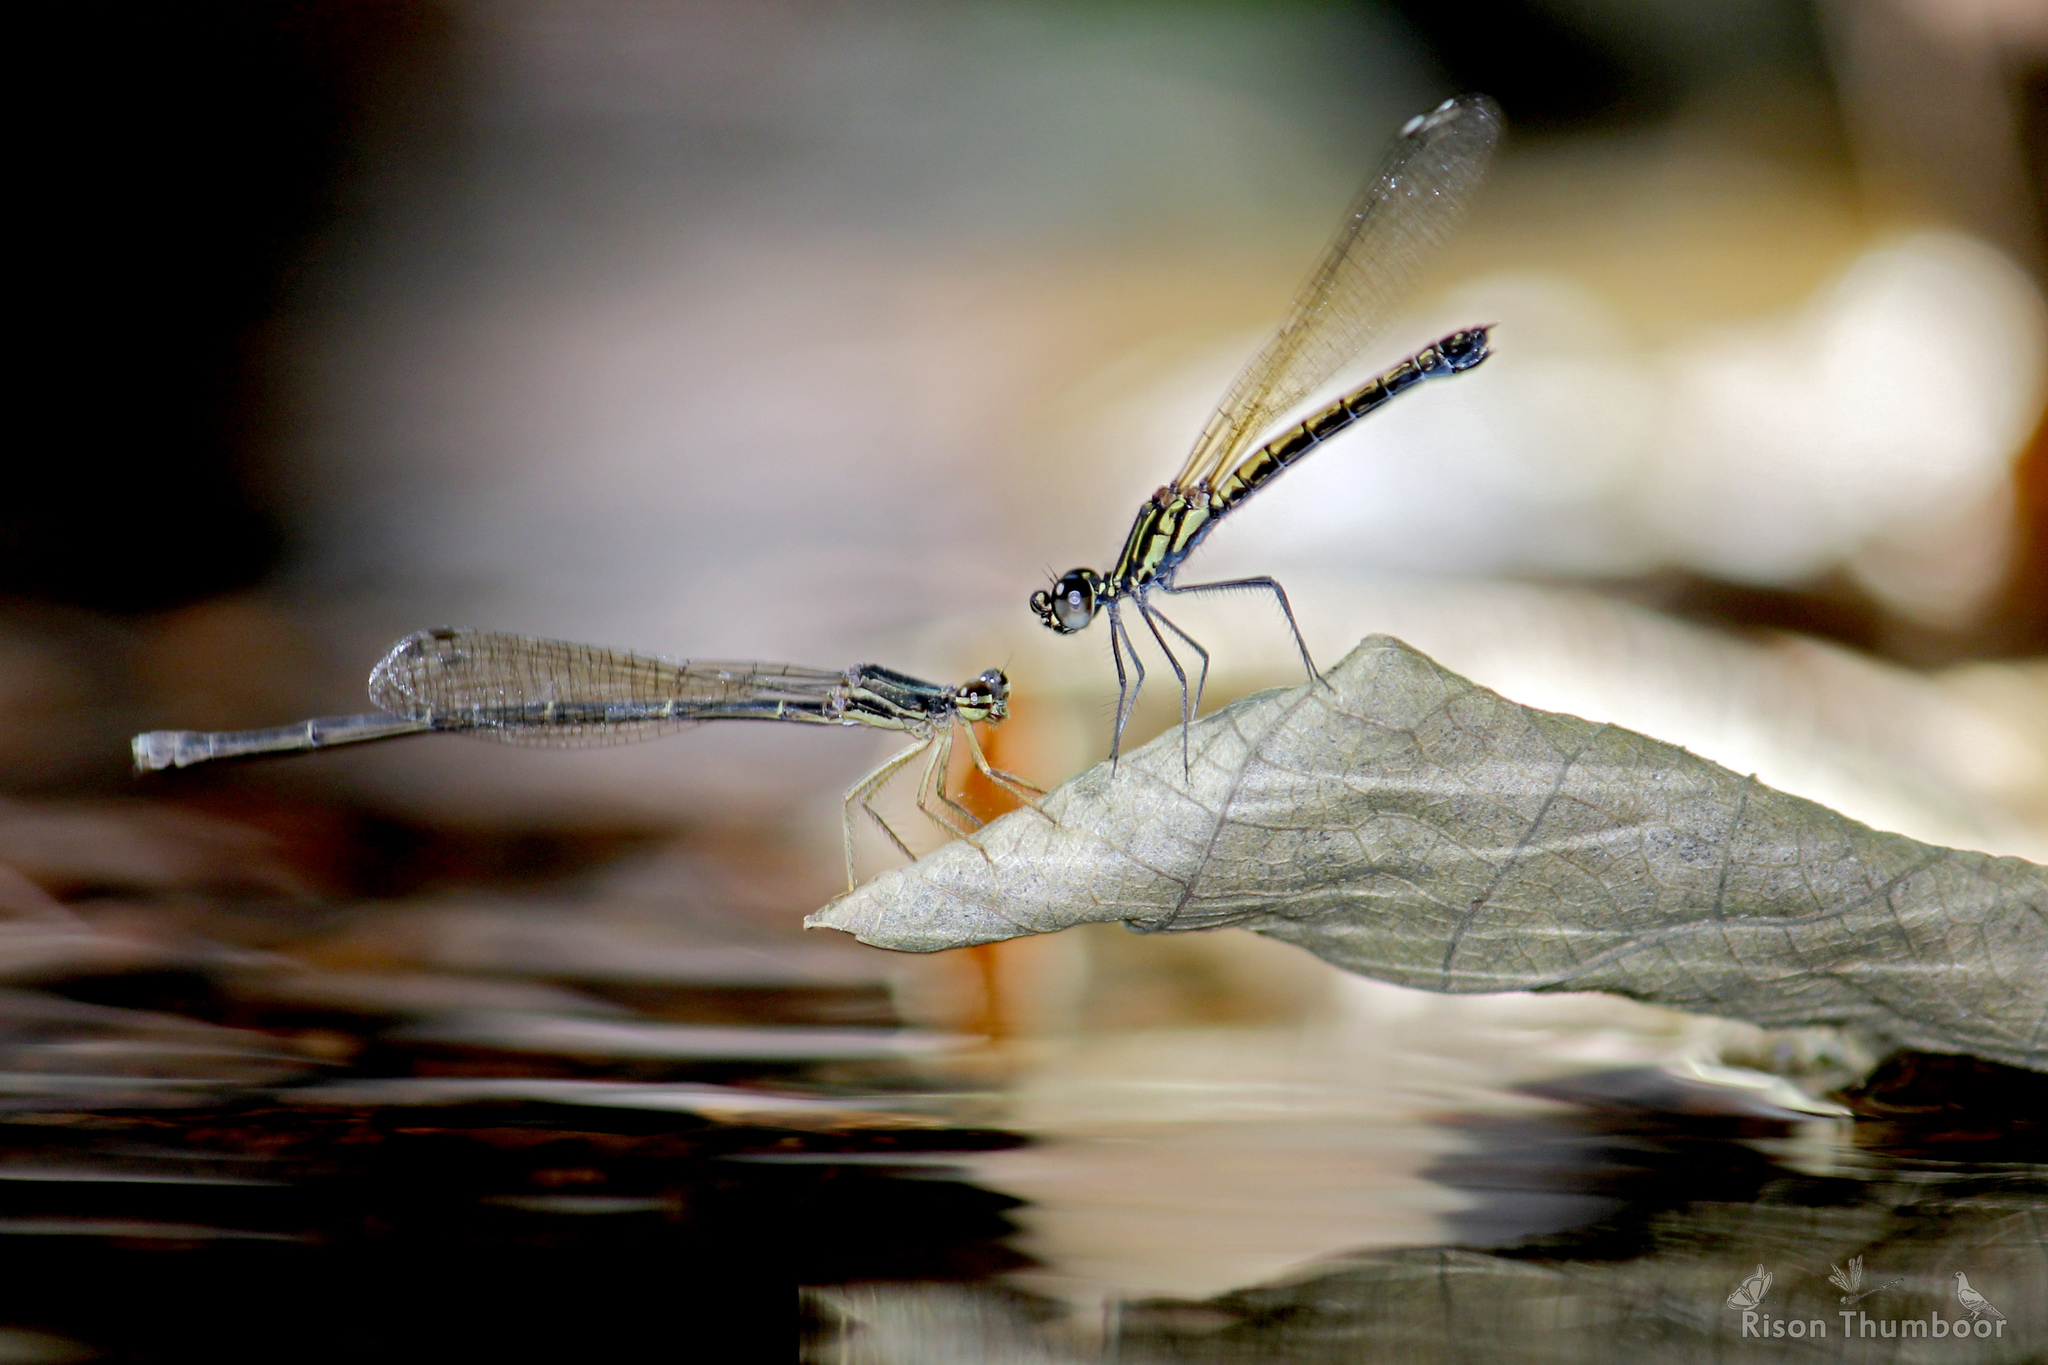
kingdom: Animalia
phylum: Arthropoda
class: Insecta
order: Odonata
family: Chlorocyphidae
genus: Libellago
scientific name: Libellago indica
